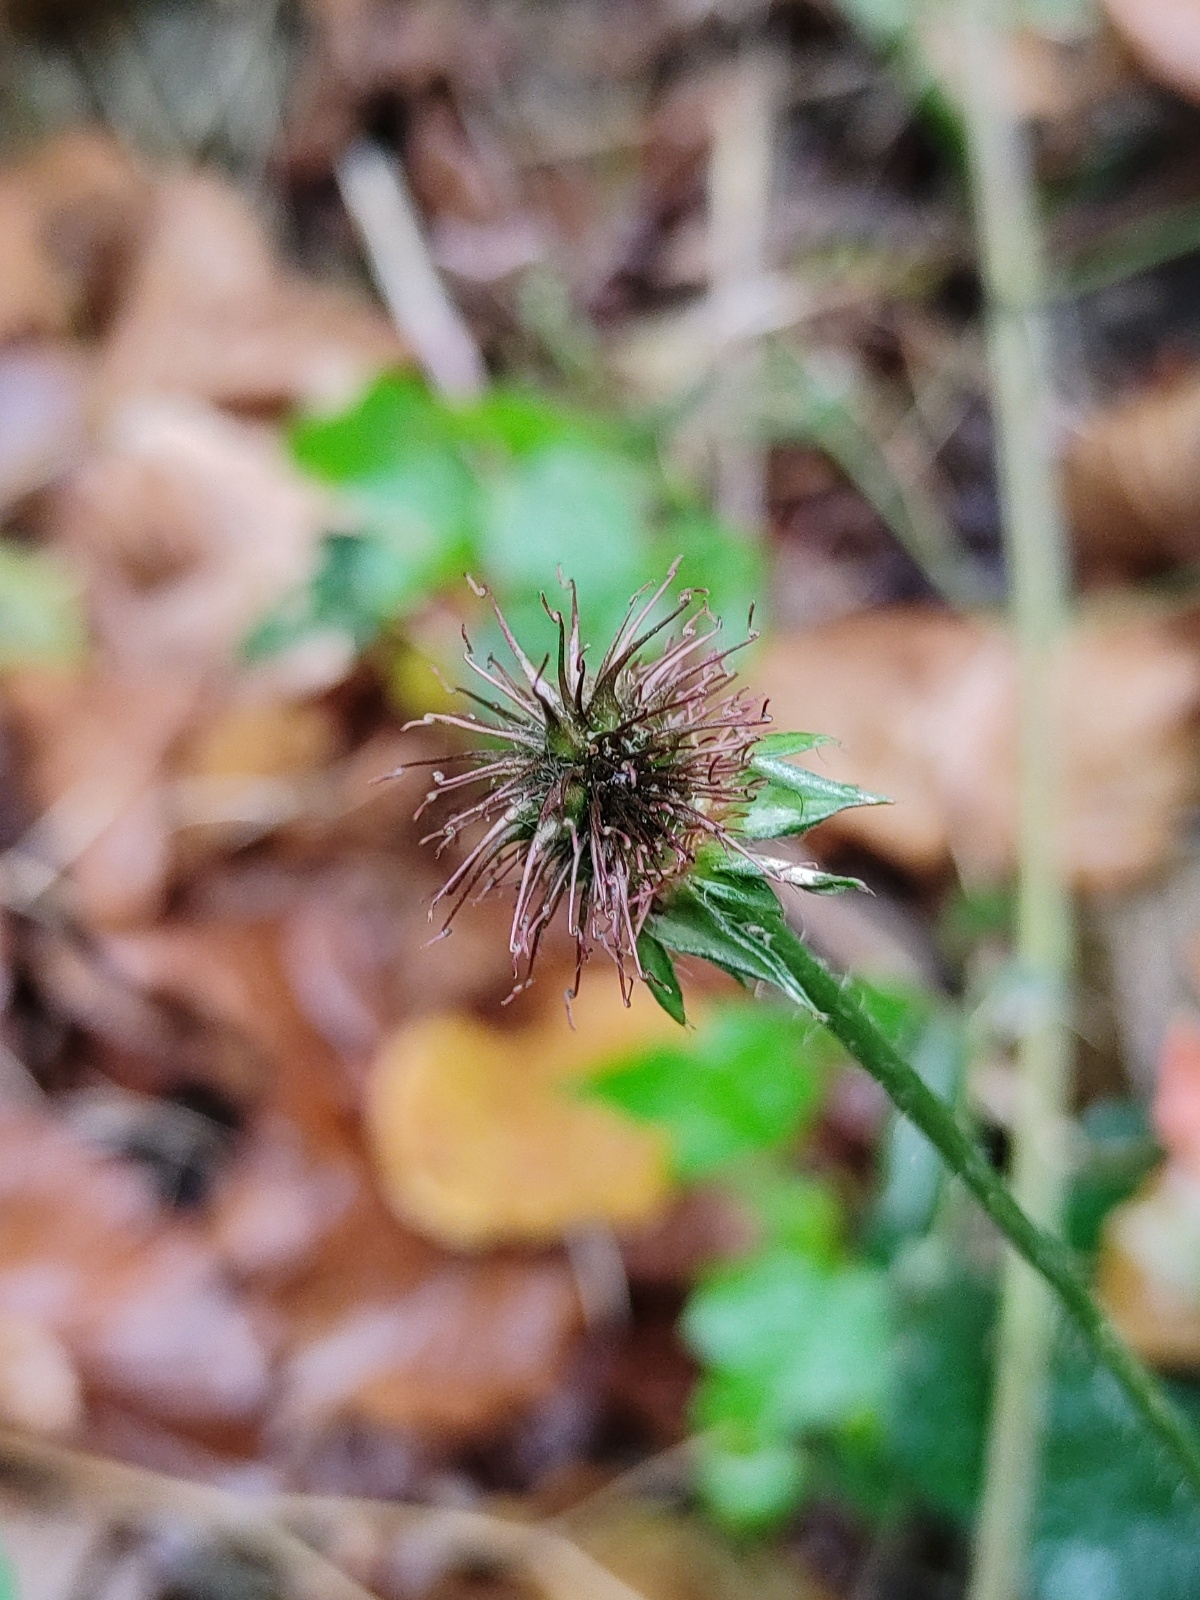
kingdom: Plantae
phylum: Tracheophyta
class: Magnoliopsida
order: Rosales
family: Rosaceae
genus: Geum
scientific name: Geum urbanum
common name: Wood avens
